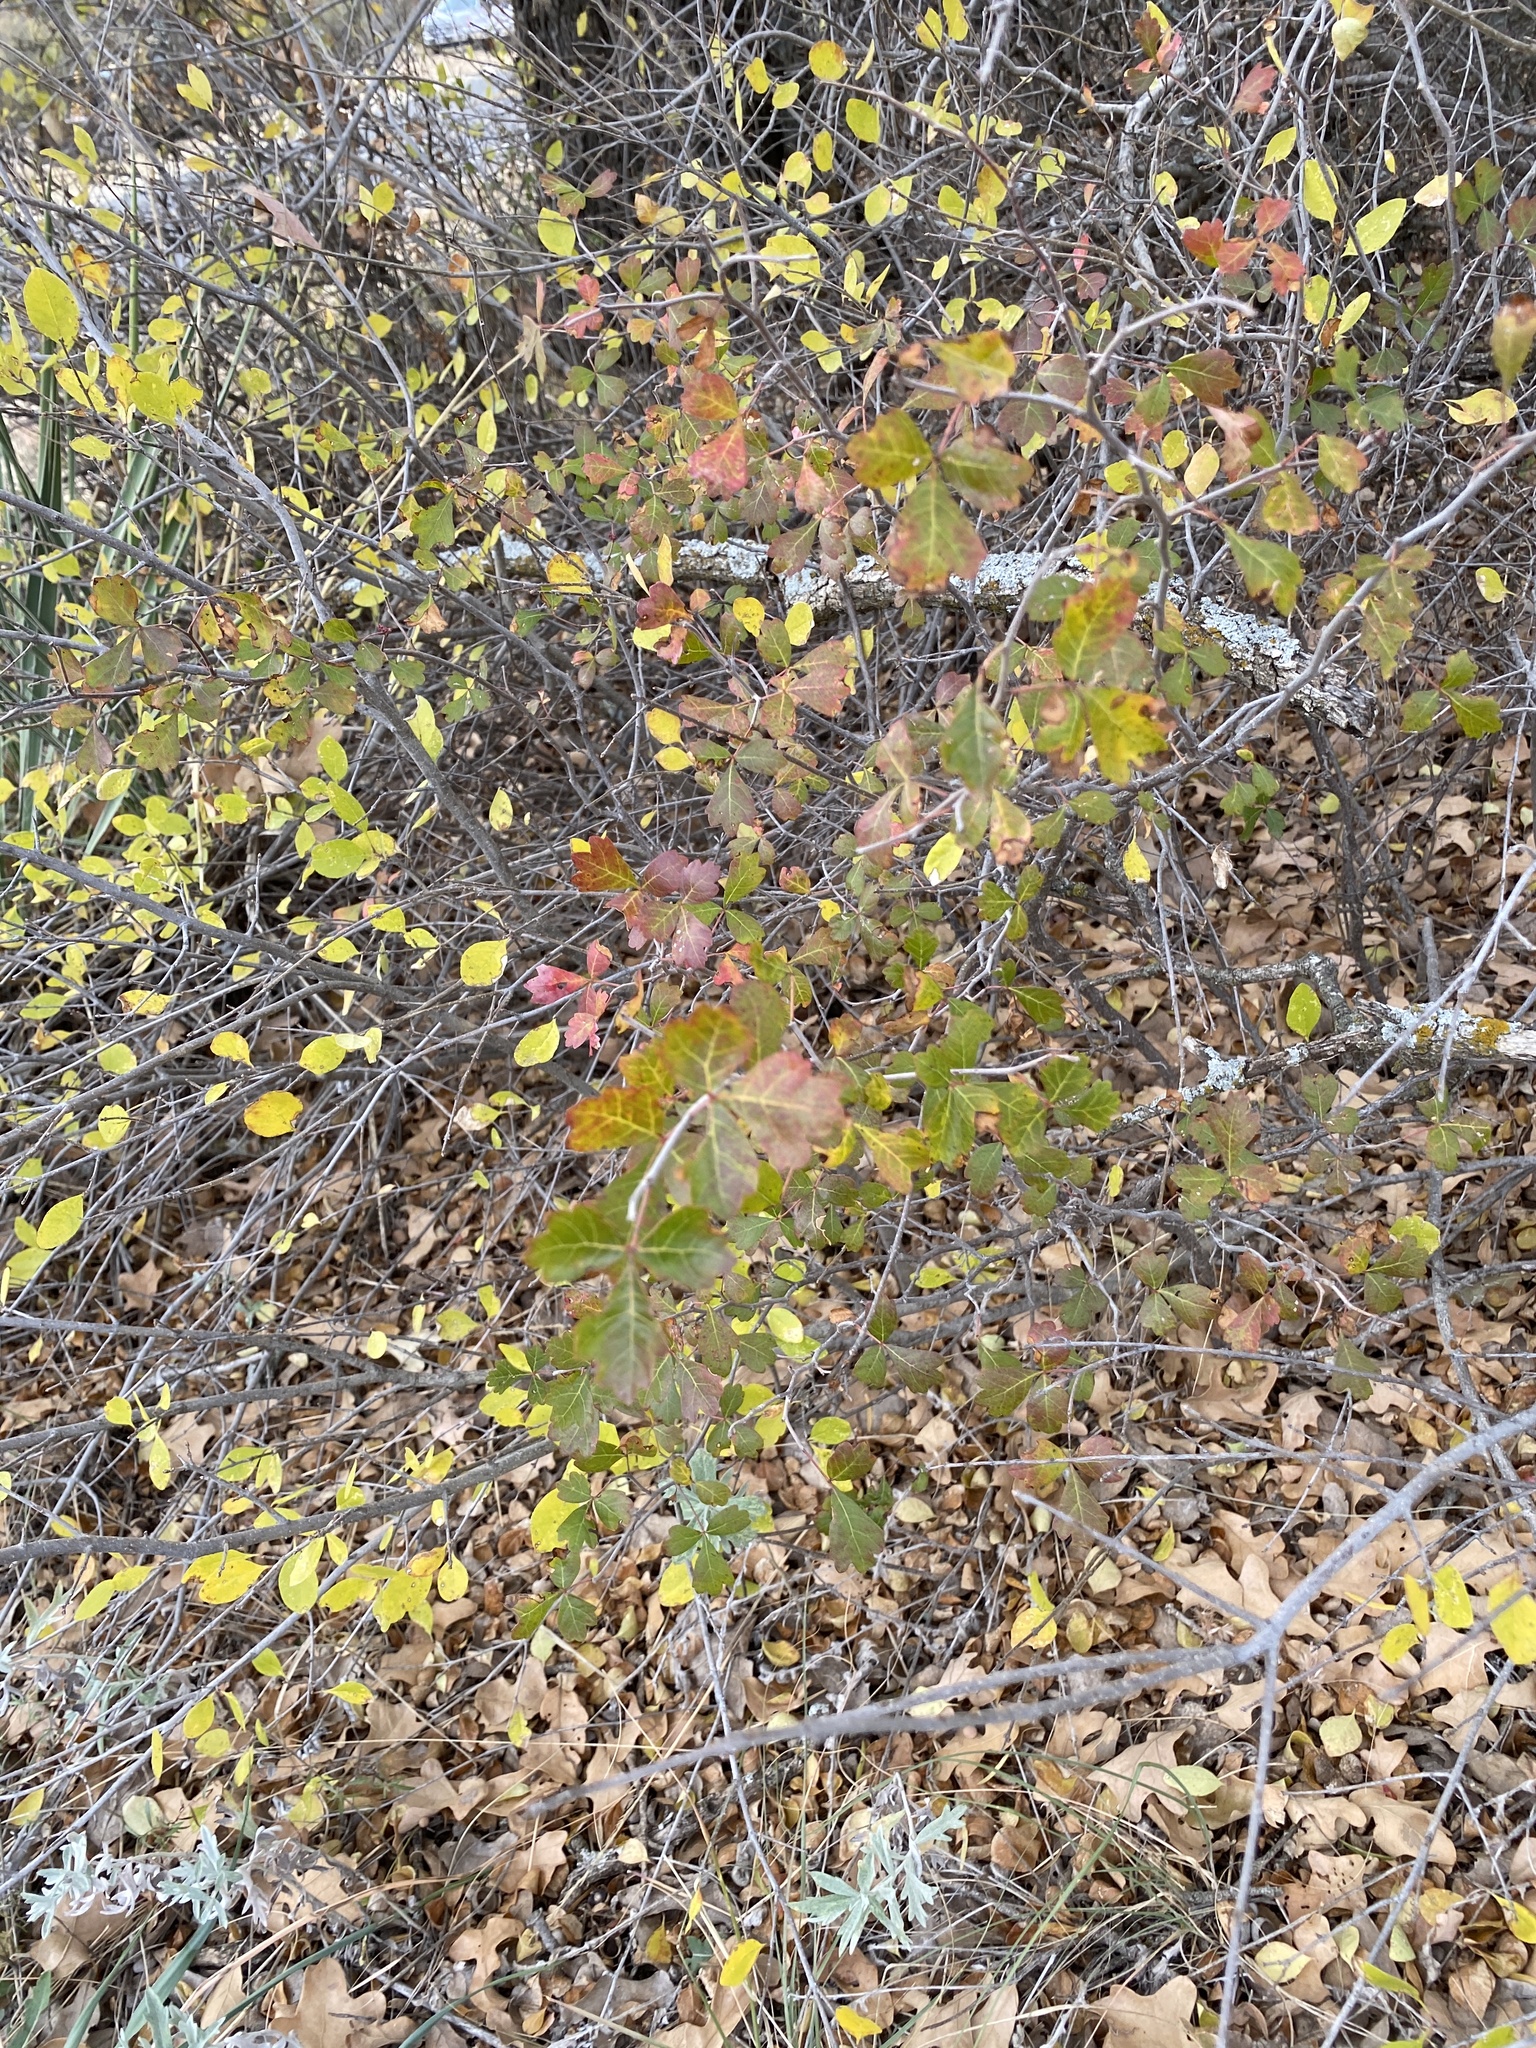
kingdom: Plantae
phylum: Tracheophyta
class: Magnoliopsida
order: Sapindales
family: Anacardiaceae
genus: Rhus
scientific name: Rhus aromatica
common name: Aromatic sumac
